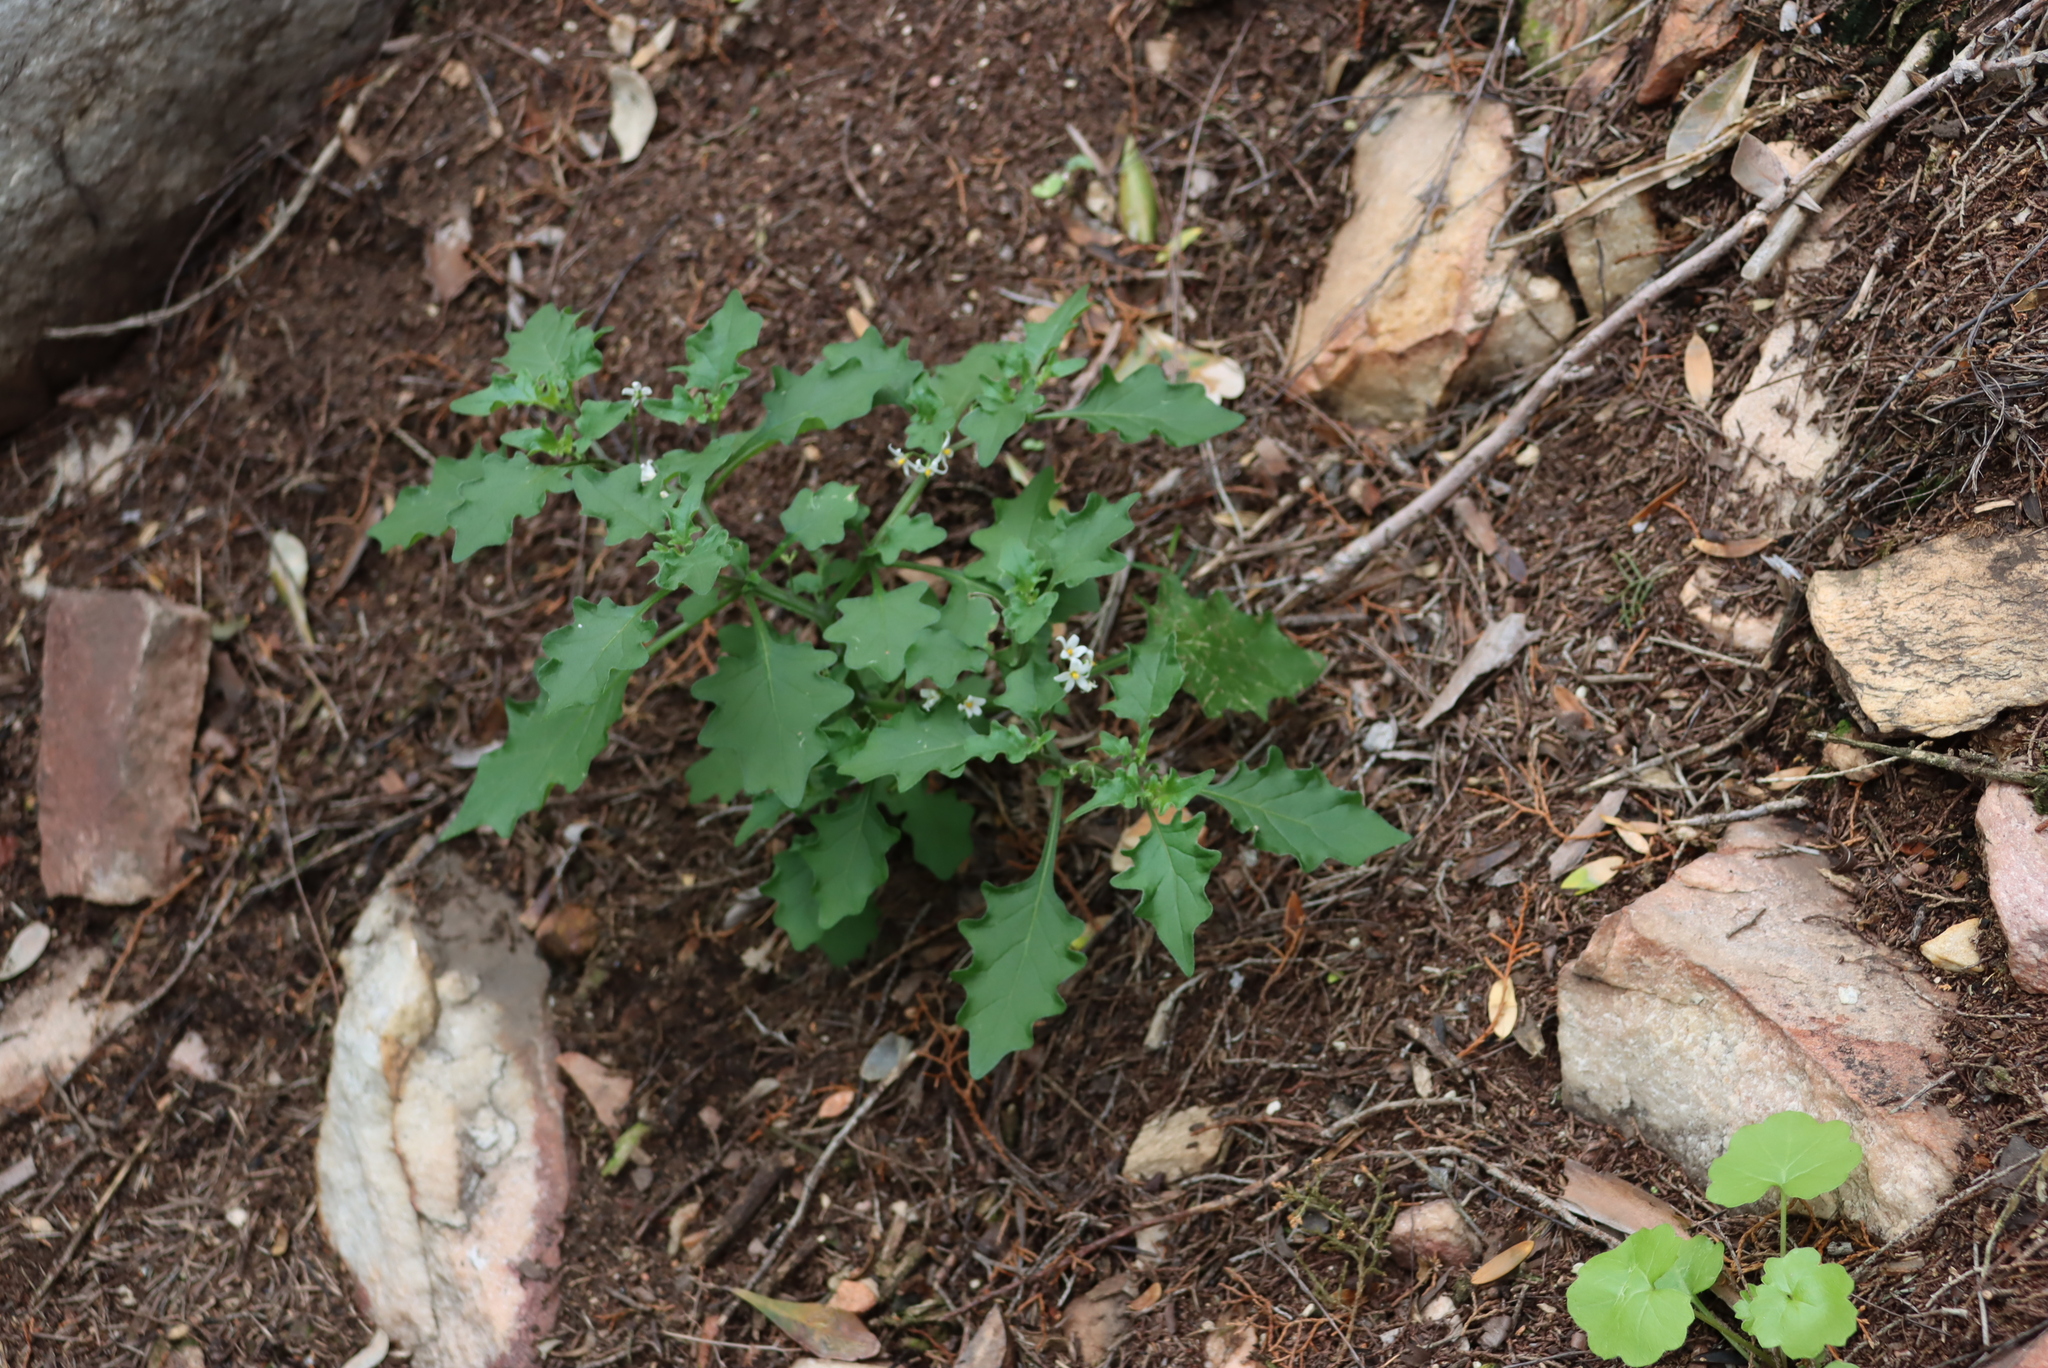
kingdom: Plantae
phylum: Tracheophyta
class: Magnoliopsida
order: Solanales
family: Solanaceae
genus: Solanum
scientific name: Solanum retroflexum
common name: Wonderberry
